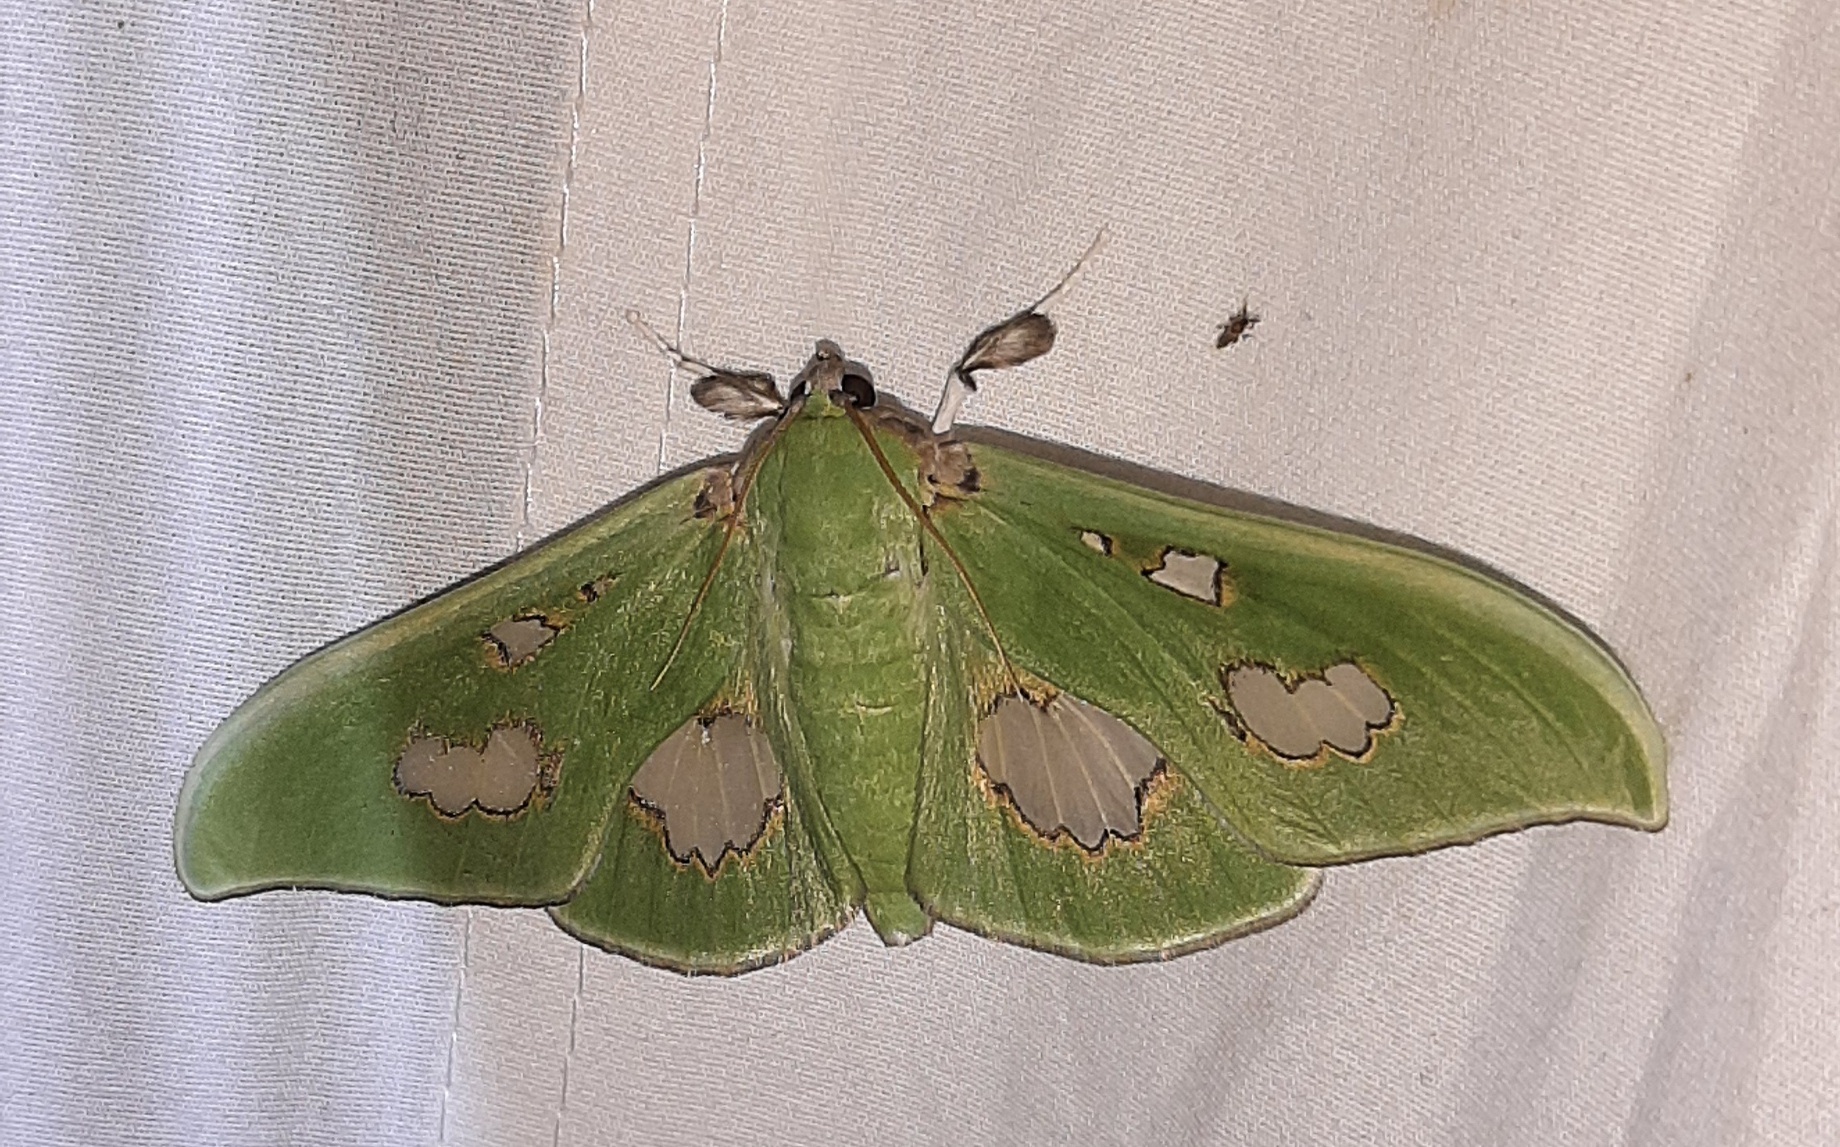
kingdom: Animalia
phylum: Arthropoda
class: Insecta
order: Lepidoptera
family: Crambidae
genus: Siga
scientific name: Siga liris
